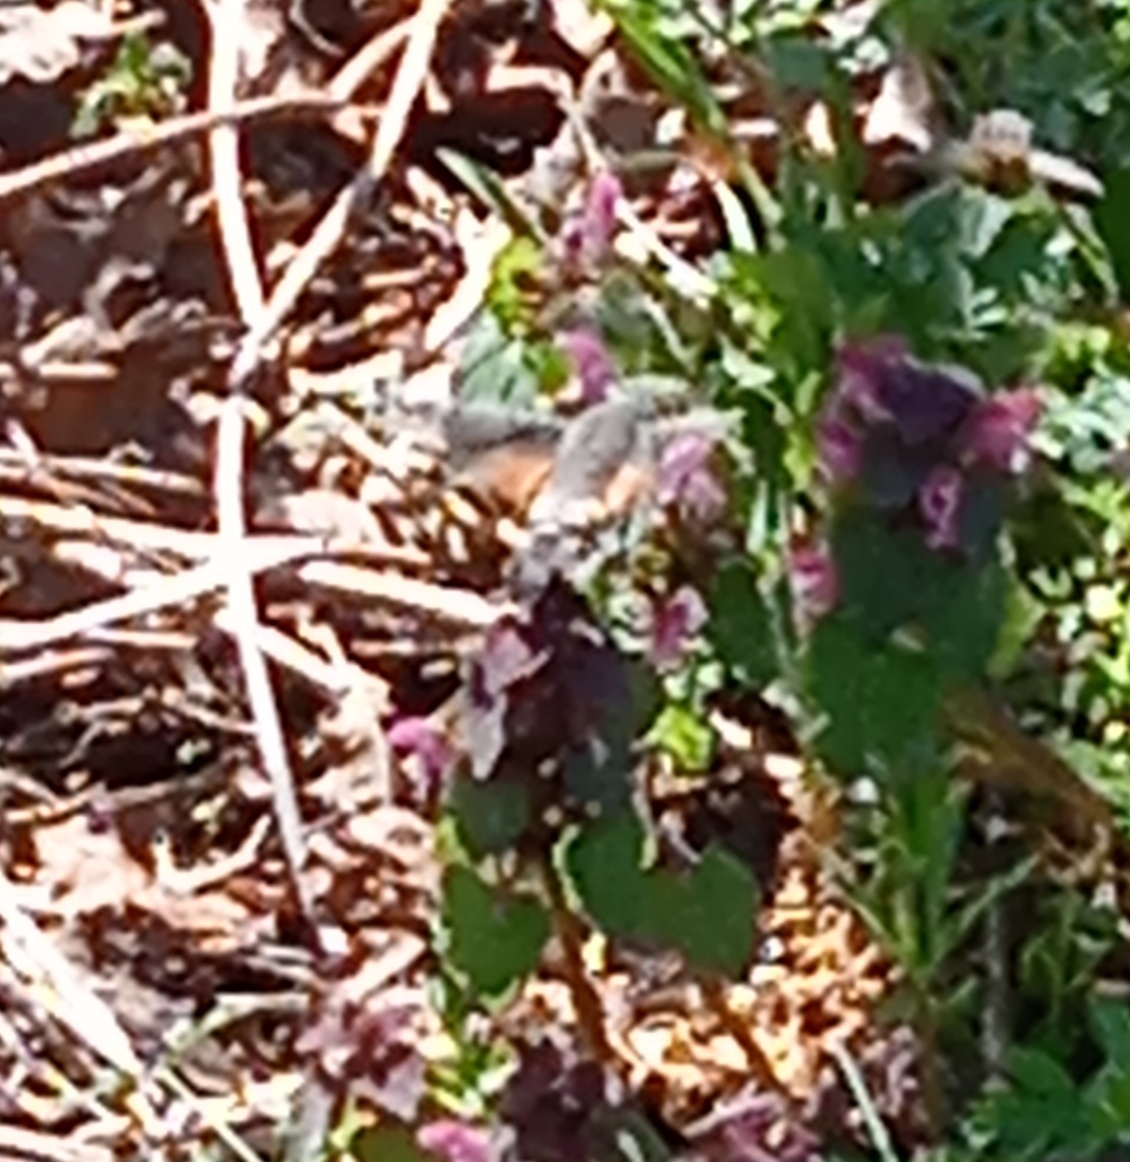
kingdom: Animalia
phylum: Arthropoda
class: Insecta
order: Lepidoptera
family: Sphingidae
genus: Macroglossum
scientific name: Macroglossum stellatarum
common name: Humming-bird hawk-moth
